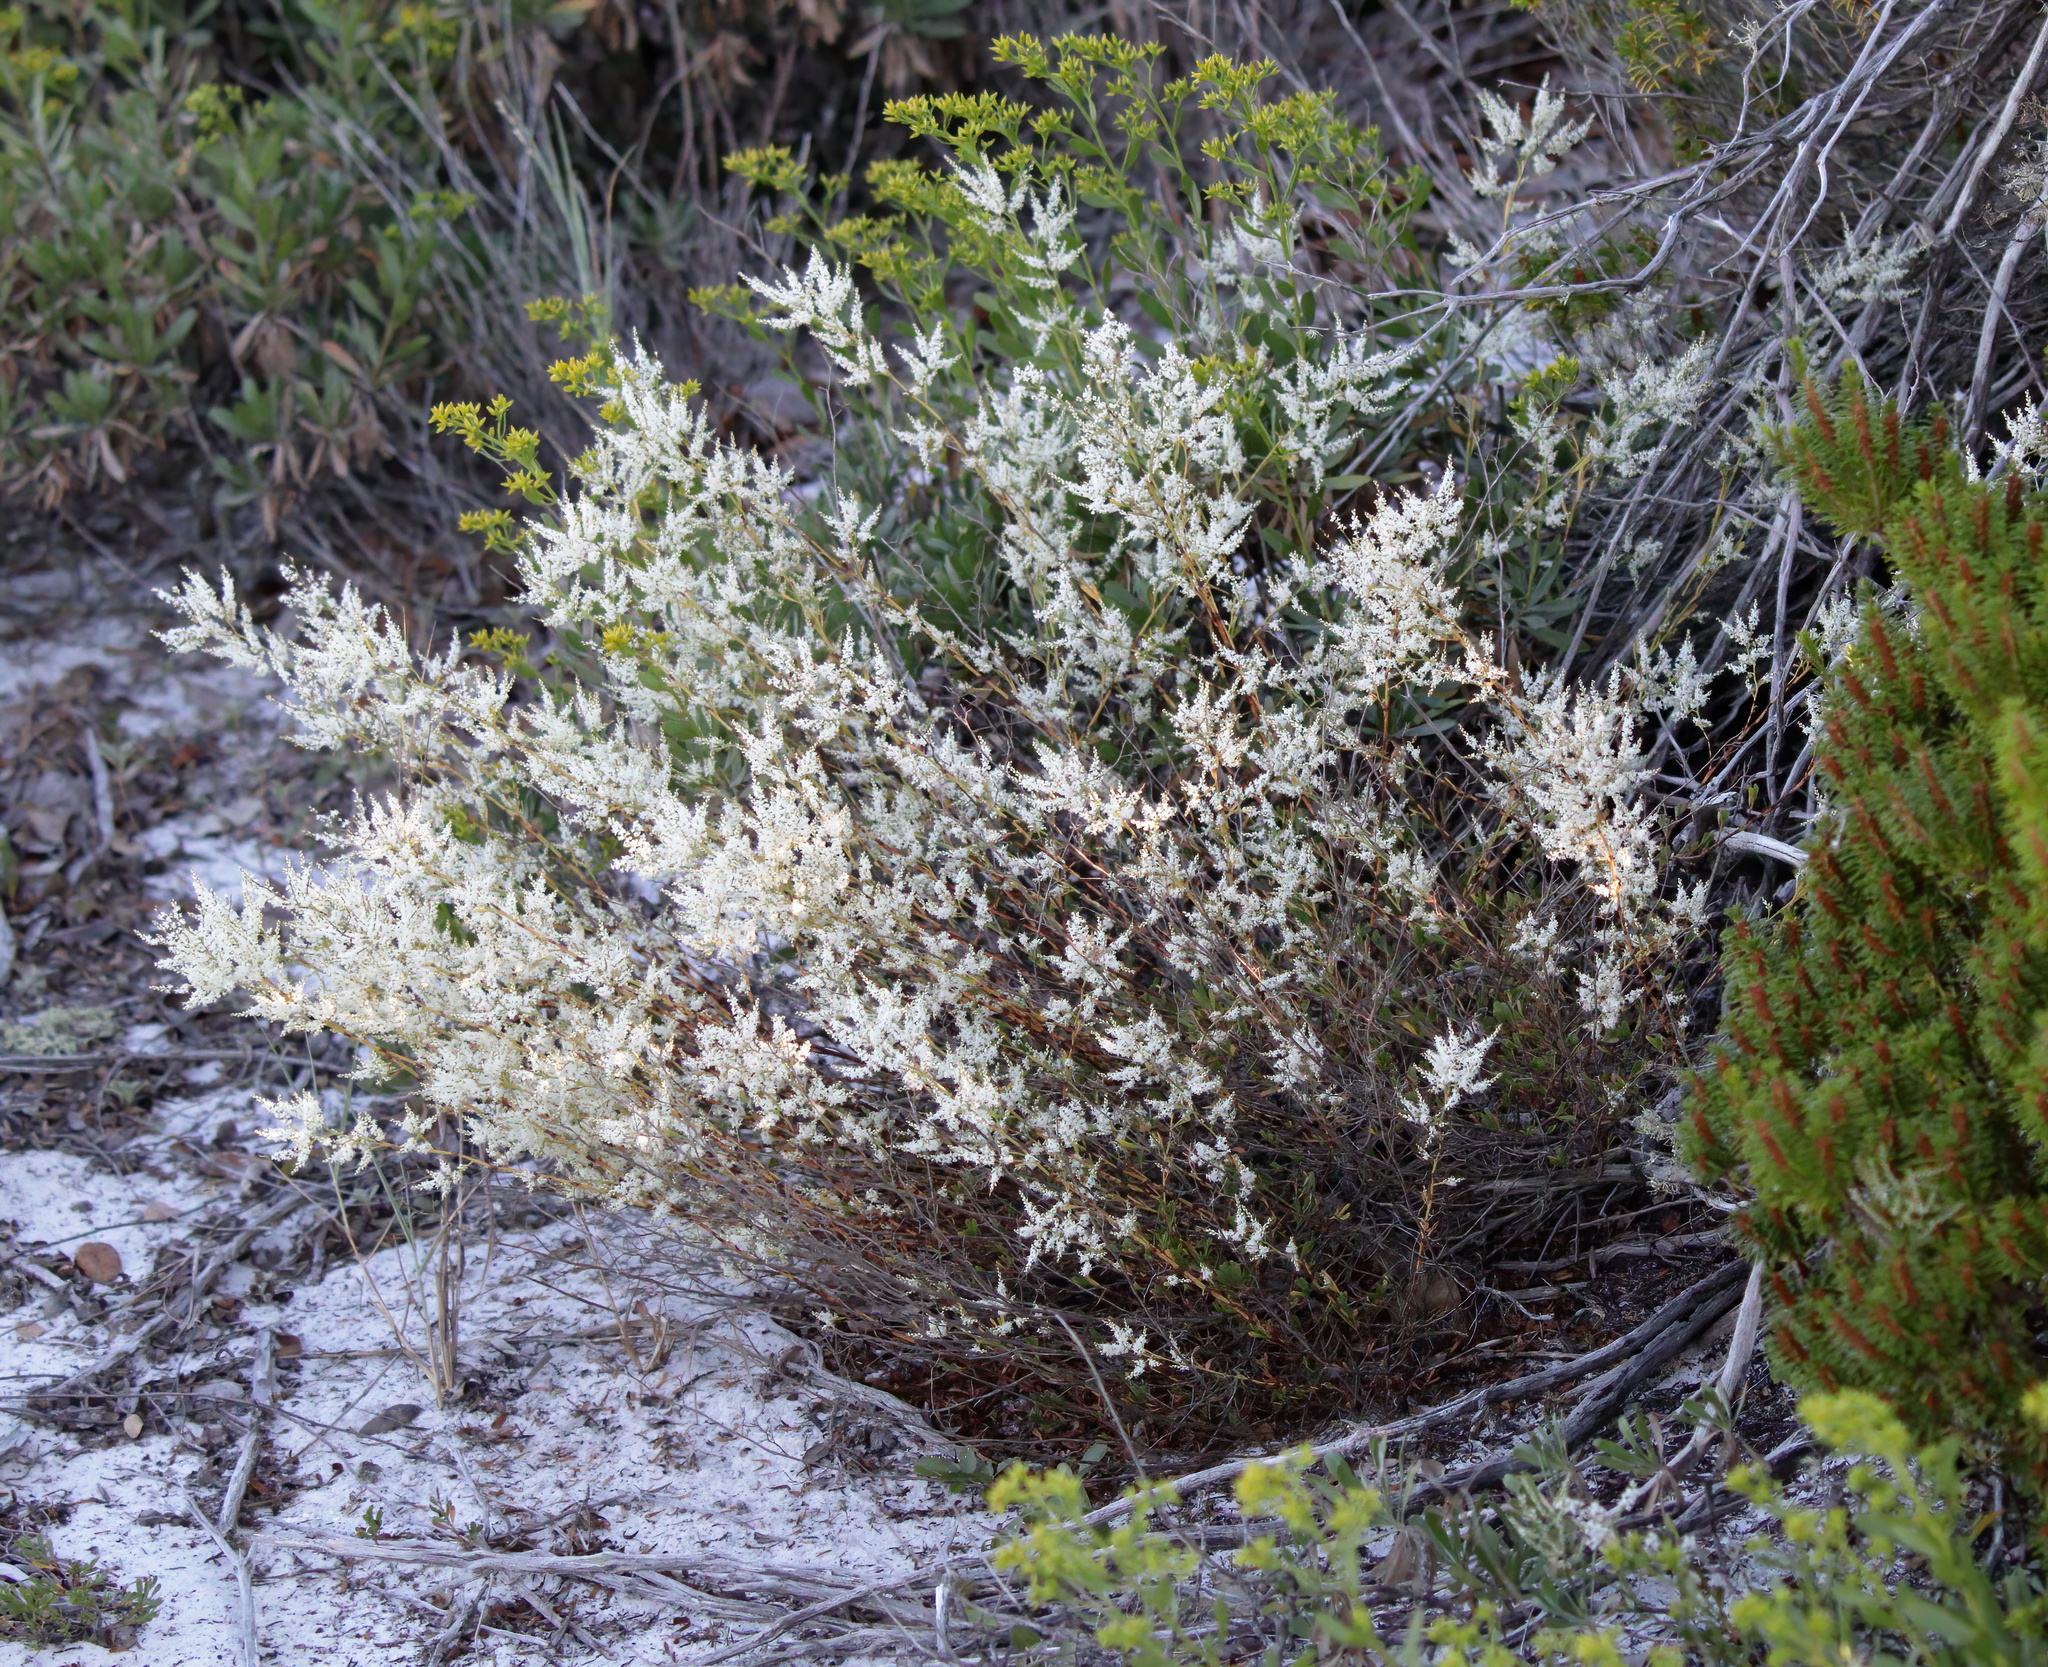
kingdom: Plantae
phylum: Tracheophyta
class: Magnoliopsida
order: Caryophyllales
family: Polygonaceae
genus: Polygonella
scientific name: Polygonella polygama
